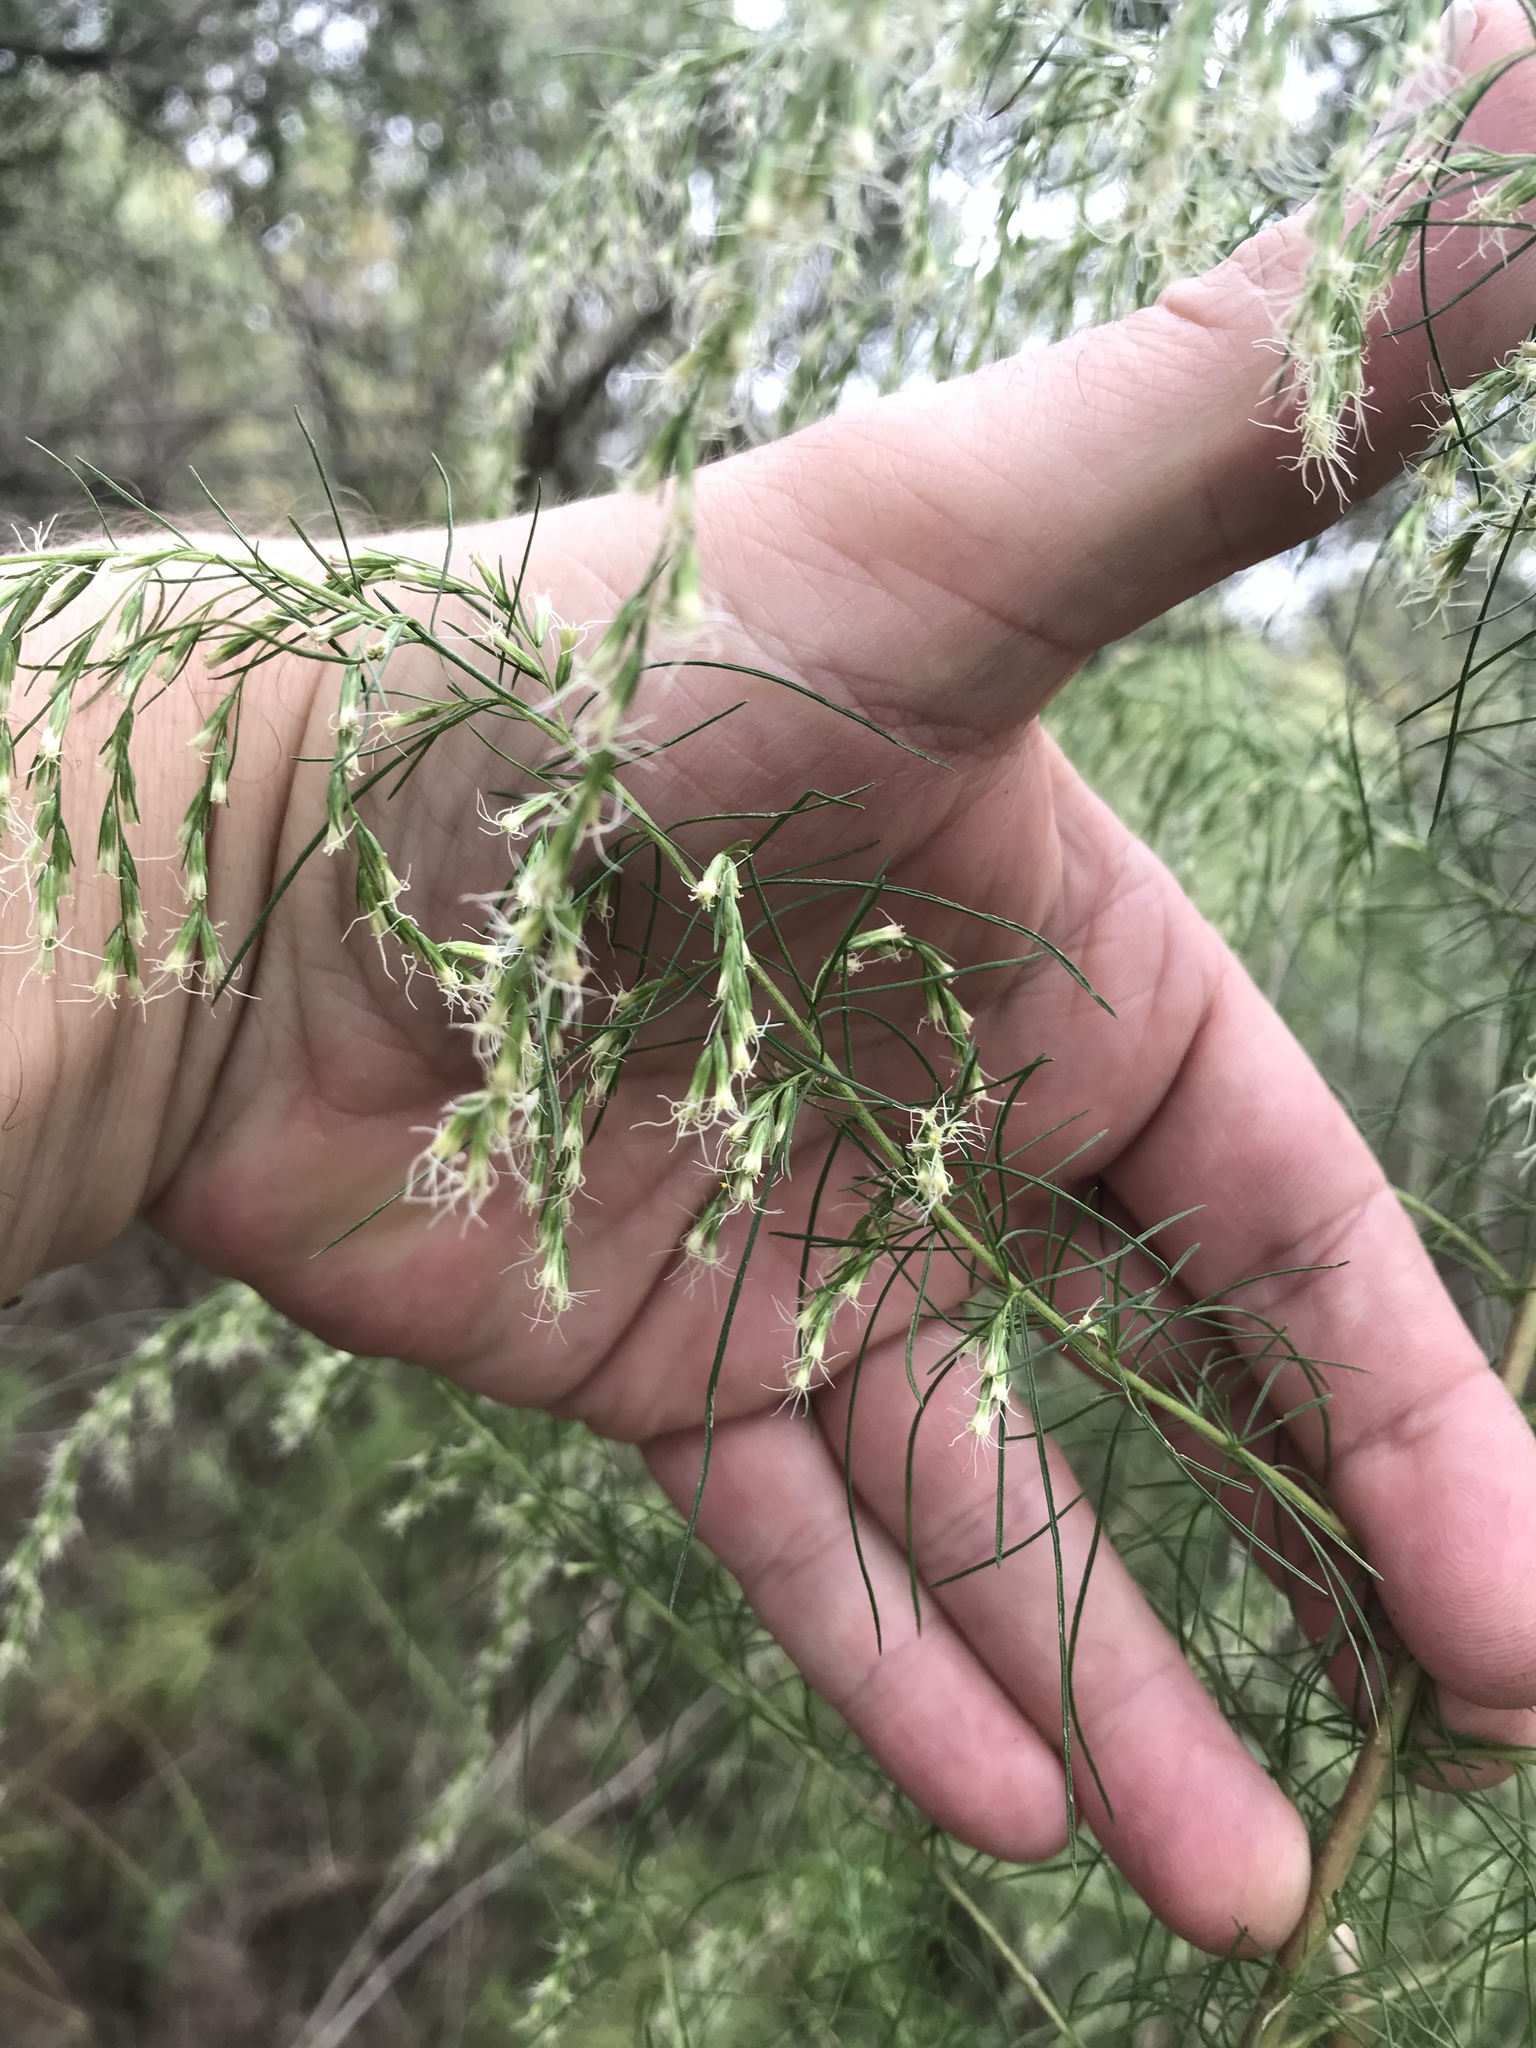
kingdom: Plantae
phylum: Tracheophyta
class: Magnoliopsida
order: Asterales
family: Asteraceae
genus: Eupatorium
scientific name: Eupatorium capillifolium
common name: Dog-fennel
